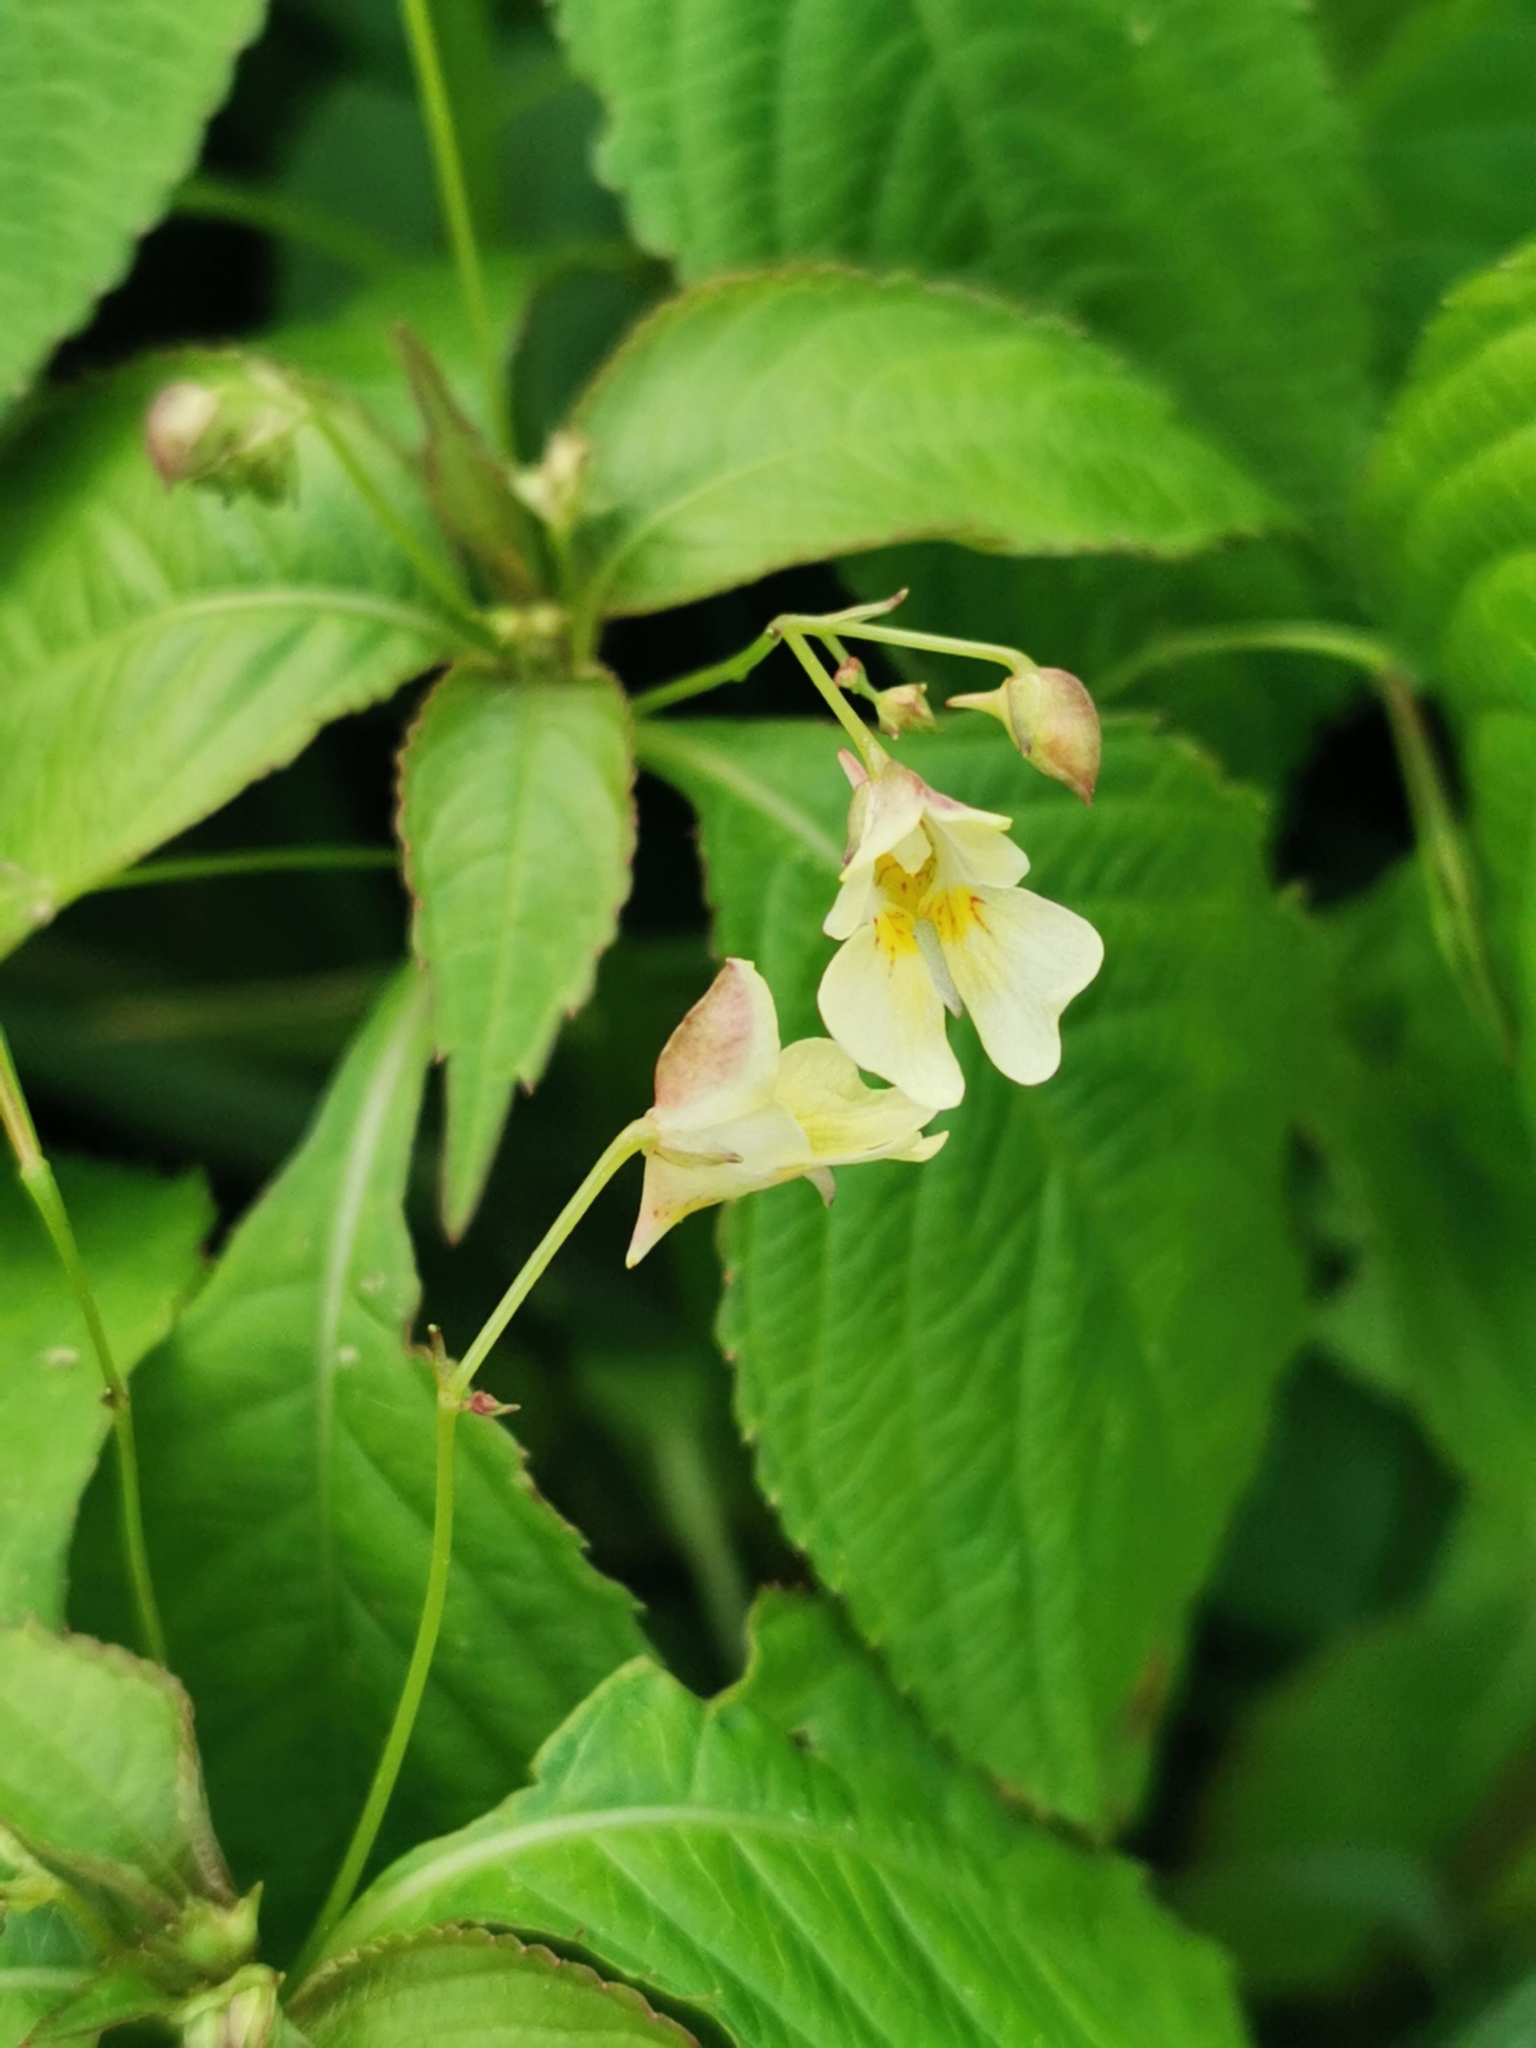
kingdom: Plantae
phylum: Tracheophyta
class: Magnoliopsida
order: Ericales
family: Balsaminaceae
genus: Impatiens
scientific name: Impatiens parviflora
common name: Small balsam
